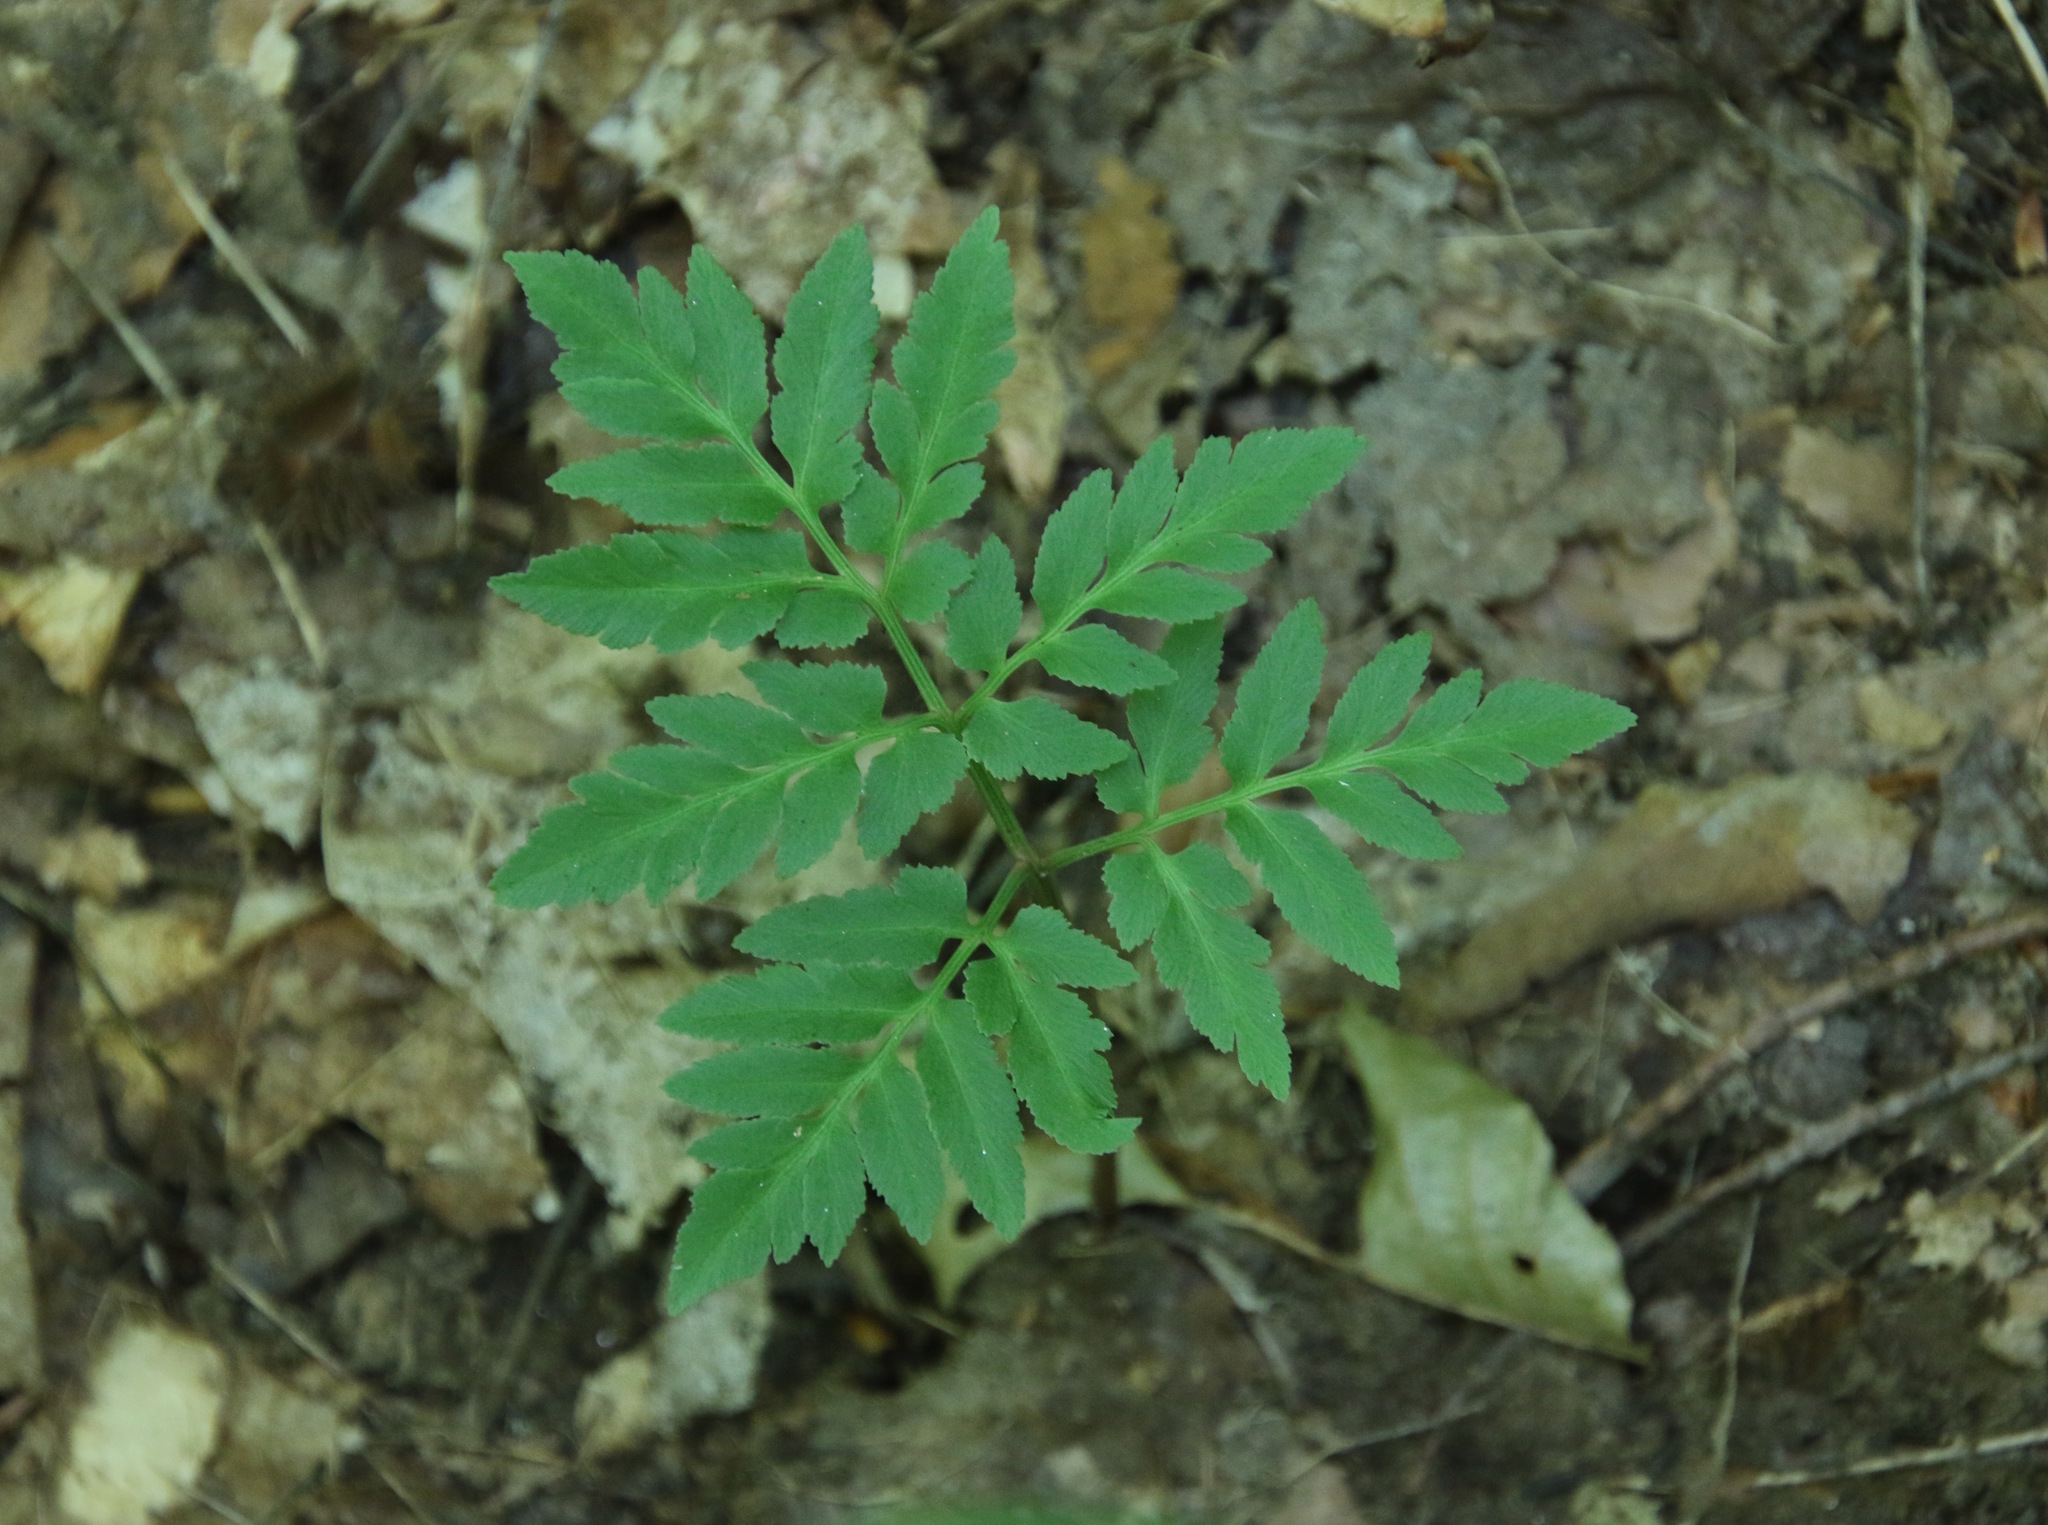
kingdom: Plantae
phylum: Tracheophyta
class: Polypodiopsida
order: Ophioglossales
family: Ophioglossaceae
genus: Sceptridium
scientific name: Sceptridium dissectum
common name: Cut-leaved grapefern
